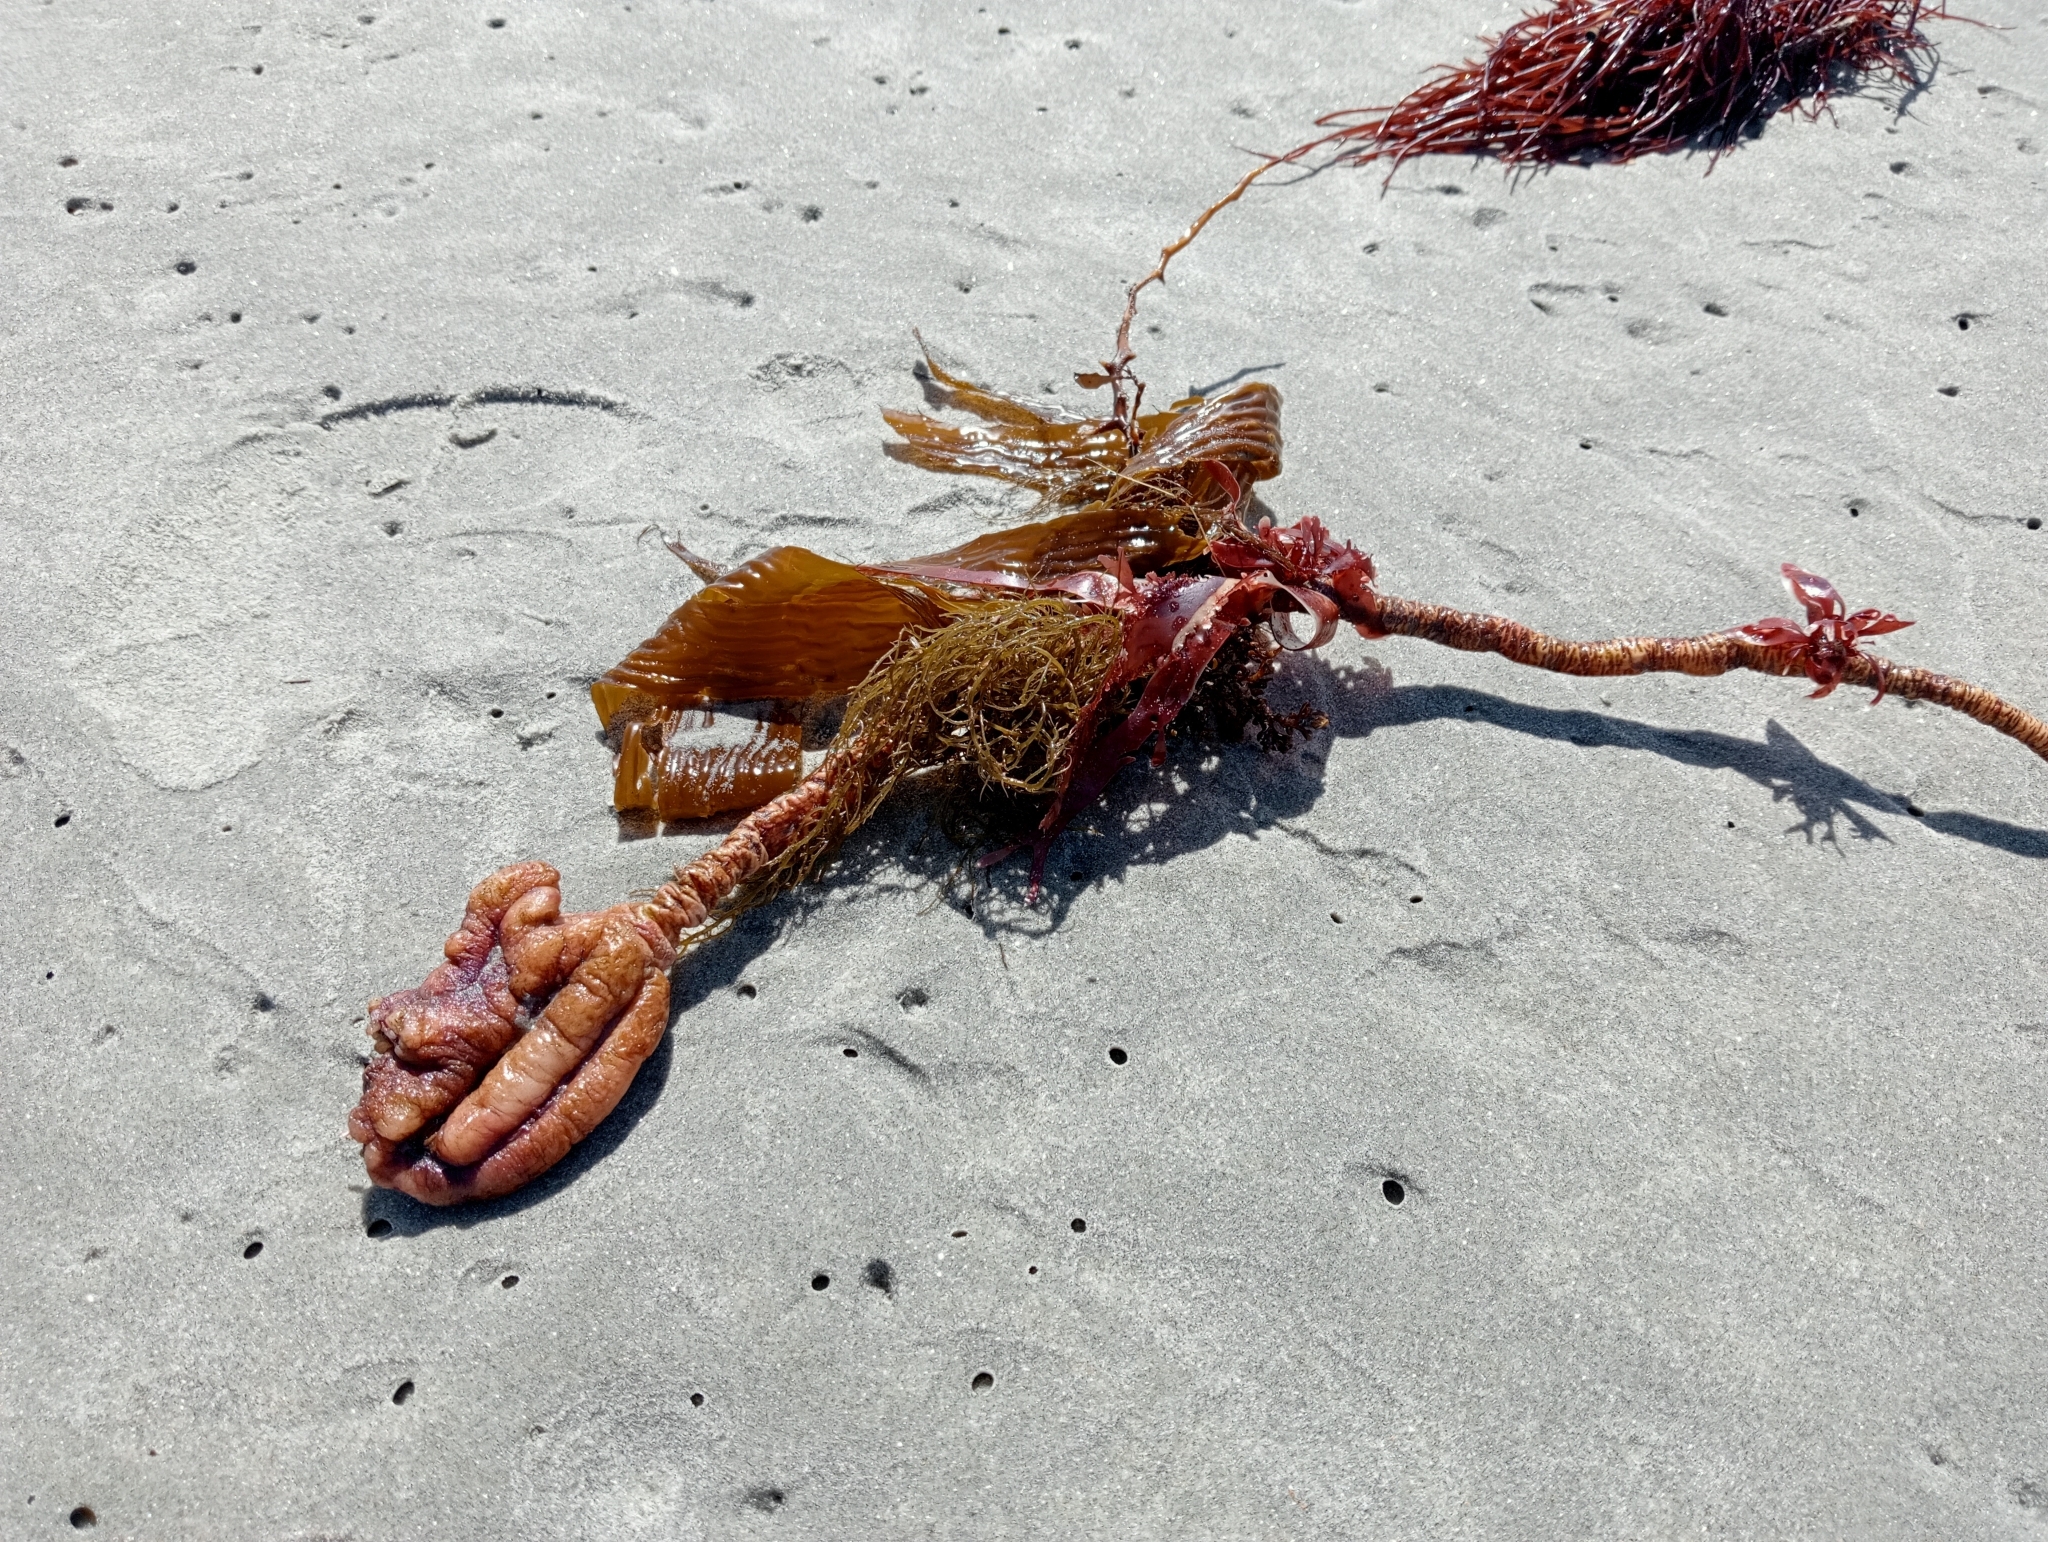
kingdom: Animalia
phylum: Chordata
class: Ascidiacea
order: Stolidobranchia
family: Pyuridae
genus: Pyura
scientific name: Pyura pachydermatina
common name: Sea tulip
